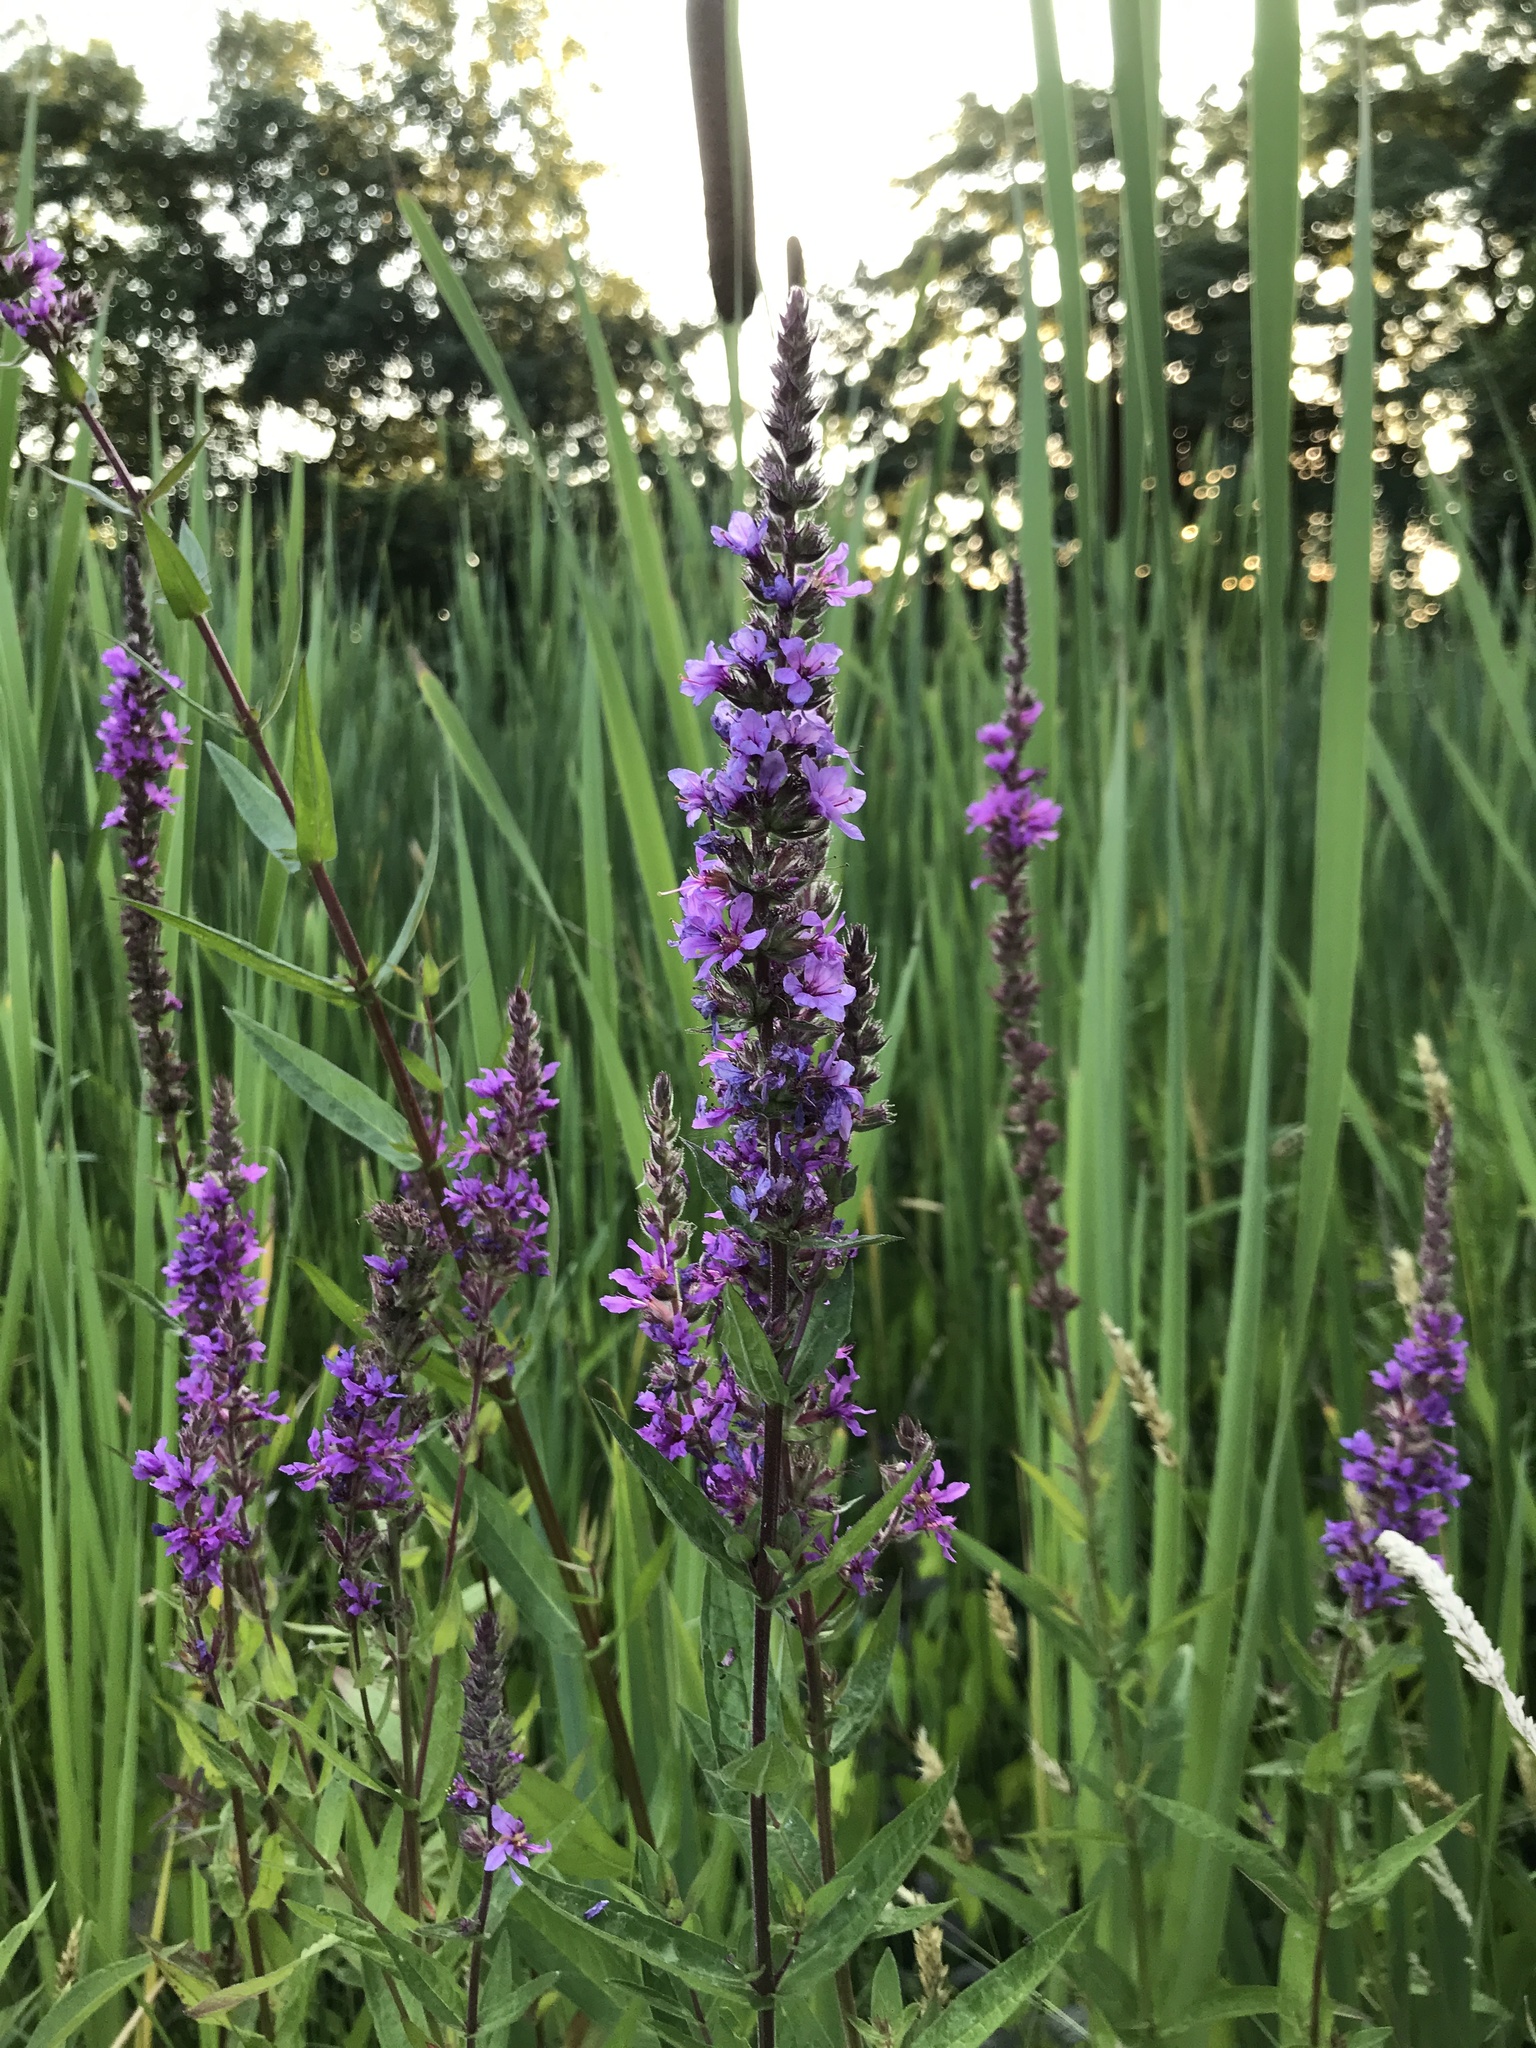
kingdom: Plantae
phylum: Tracheophyta
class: Magnoliopsida
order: Myrtales
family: Lythraceae
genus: Lythrum
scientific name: Lythrum salicaria
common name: Purple loosestrife
